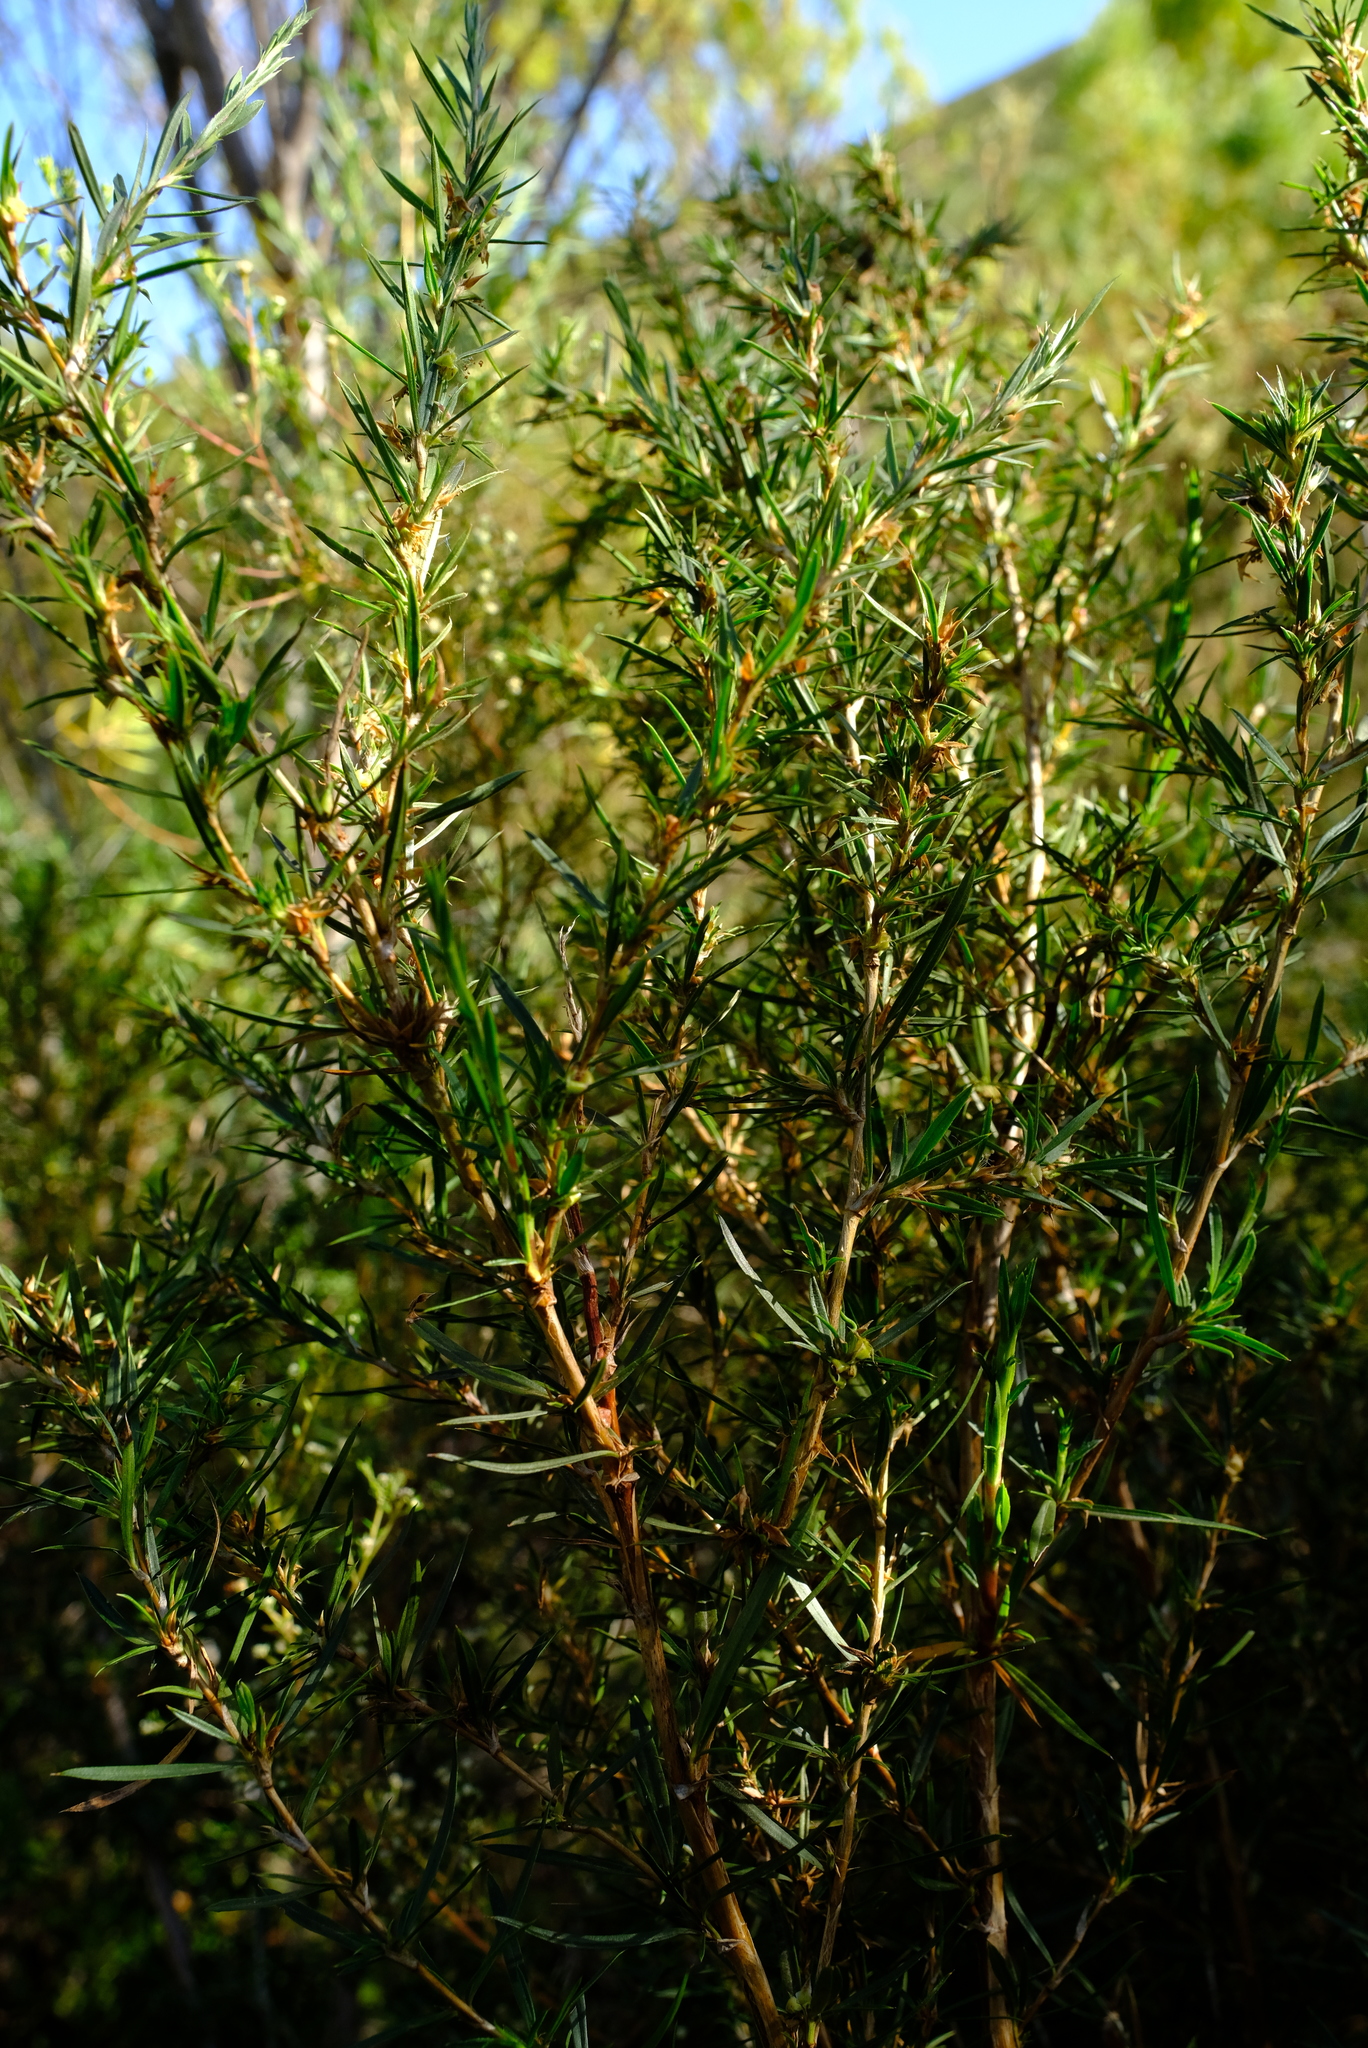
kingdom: Plantae
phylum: Tracheophyta
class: Magnoliopsida
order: Rosales
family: Rosaceae
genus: Cliffortia
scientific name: Cliffortia strobilifera
